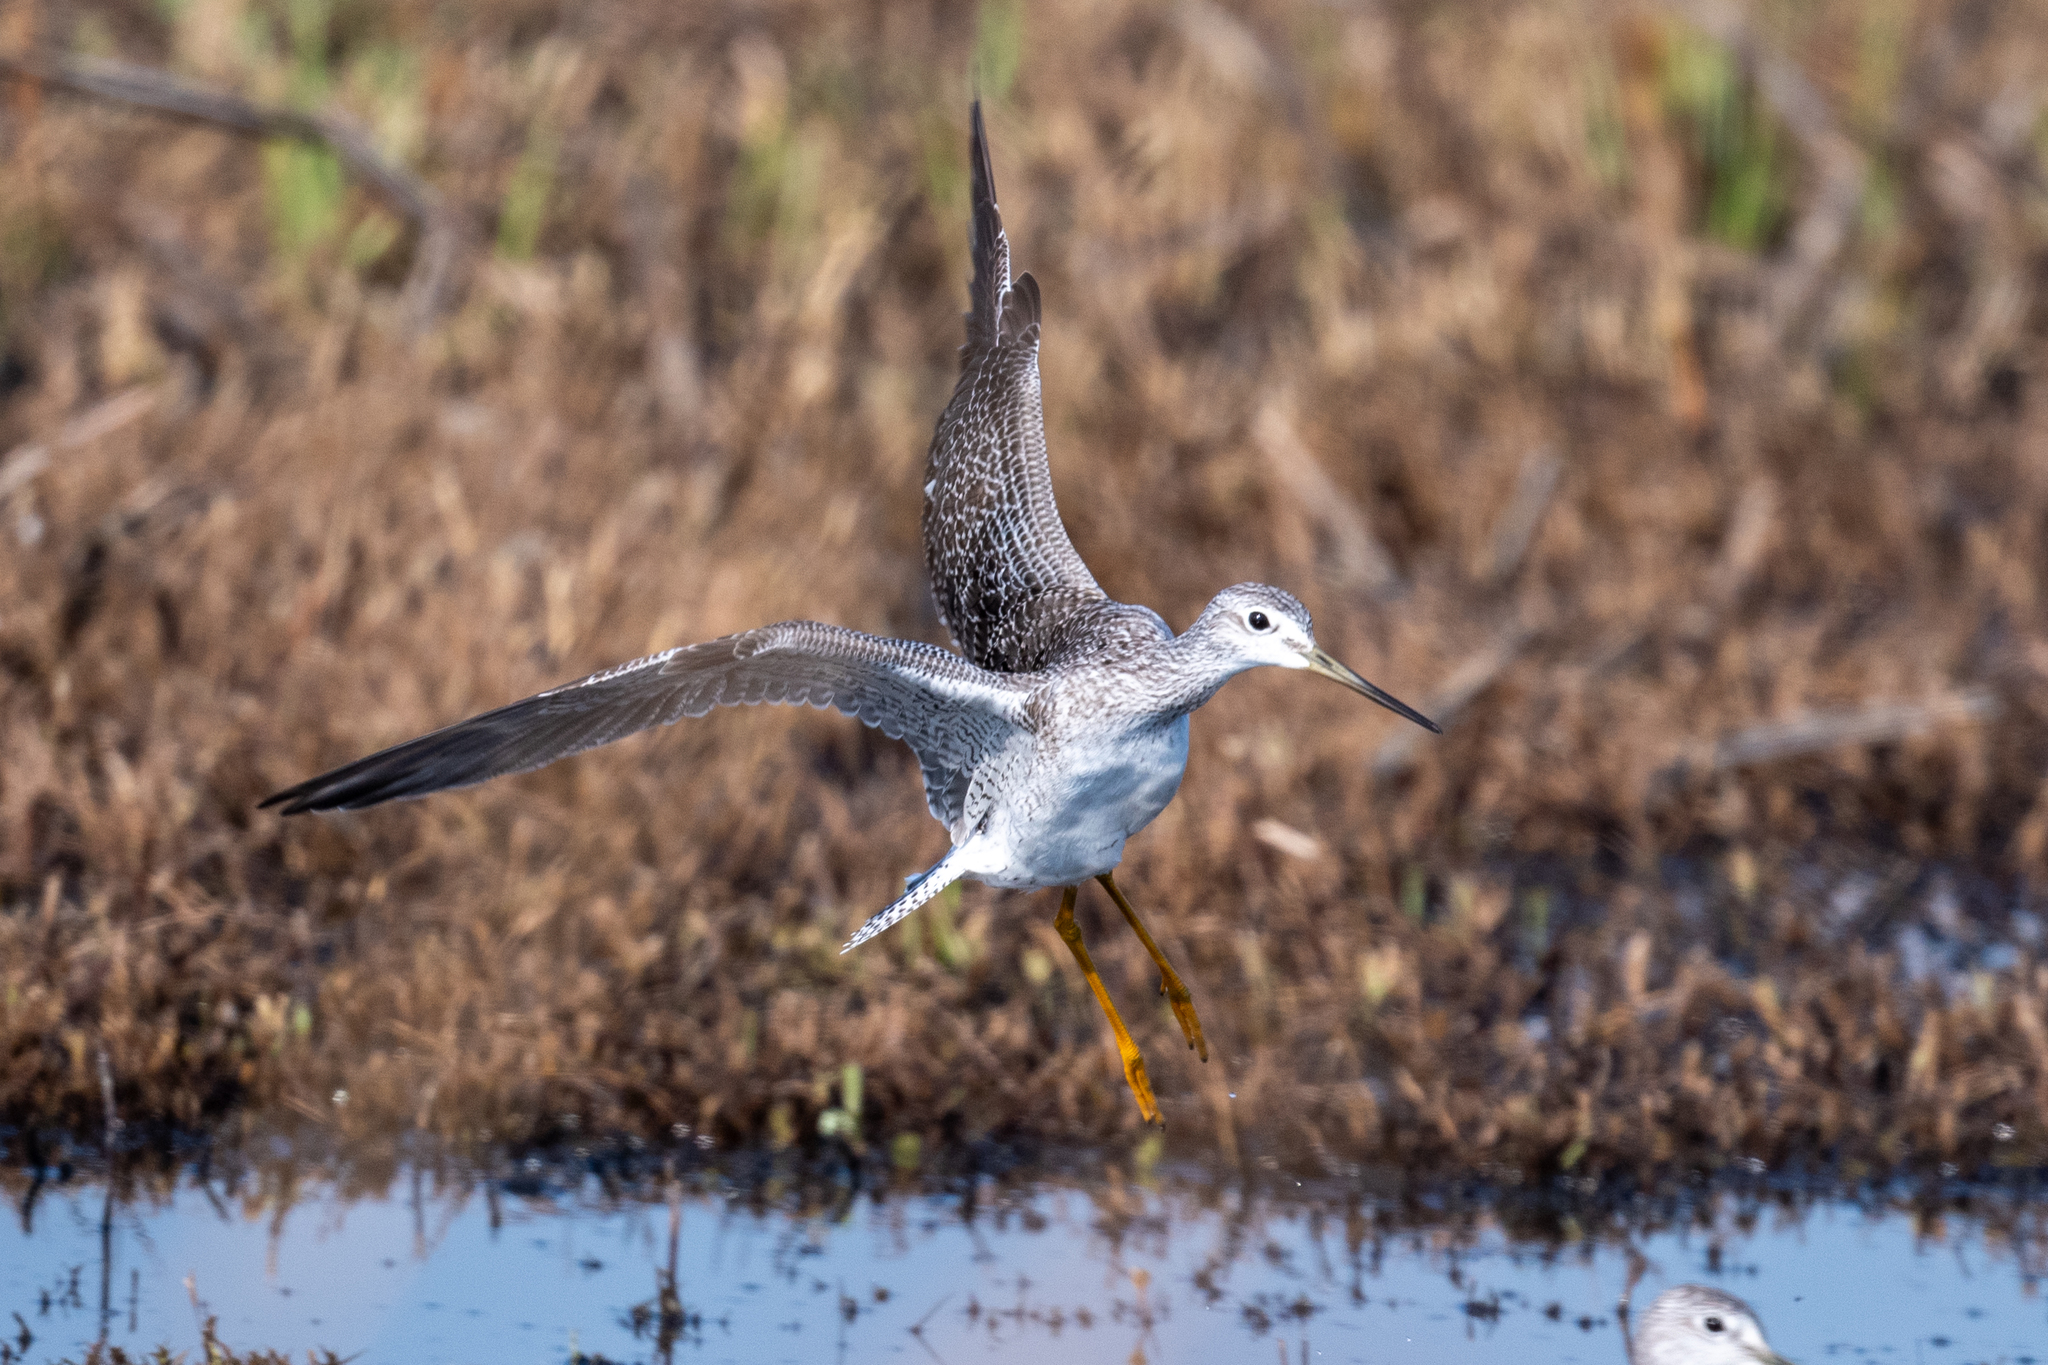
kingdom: Animalia
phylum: Chordata
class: Aves
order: Charadriiformes
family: Scolopacidae
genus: Tringa
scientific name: Tringa melanoleuca
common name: Greater yellowlegs
